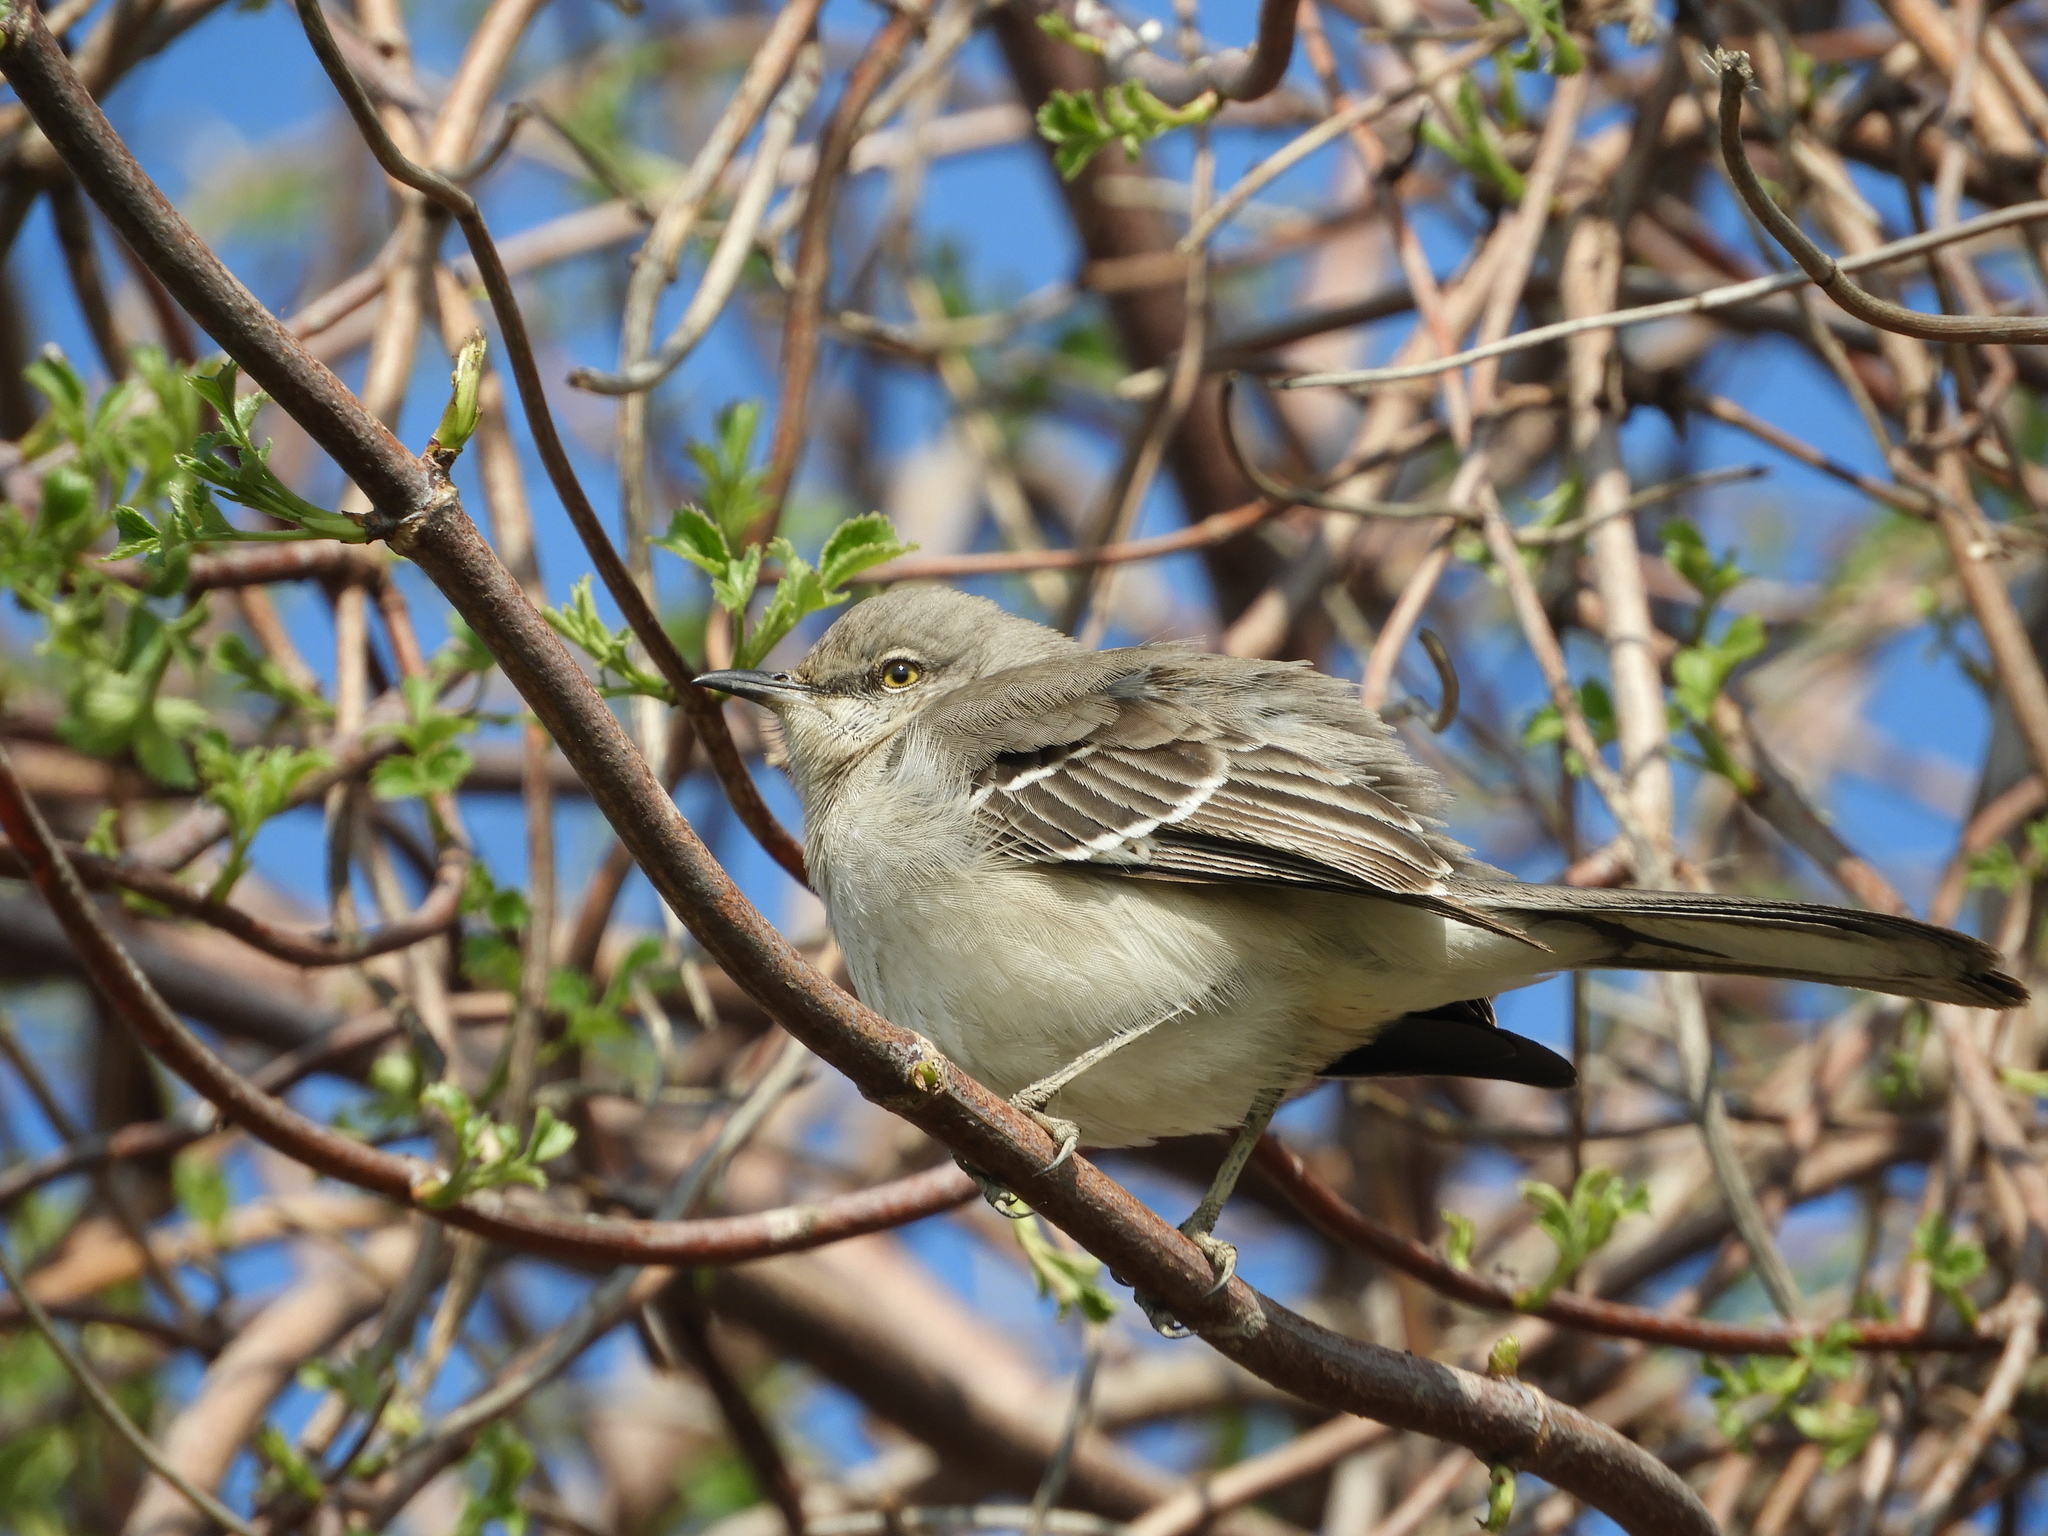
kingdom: Animalia
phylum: Chordata
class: Aves
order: Passeriformes
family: Mimidae
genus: Mimus
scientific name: Mimus polyglottos
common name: Northern mockingbird
